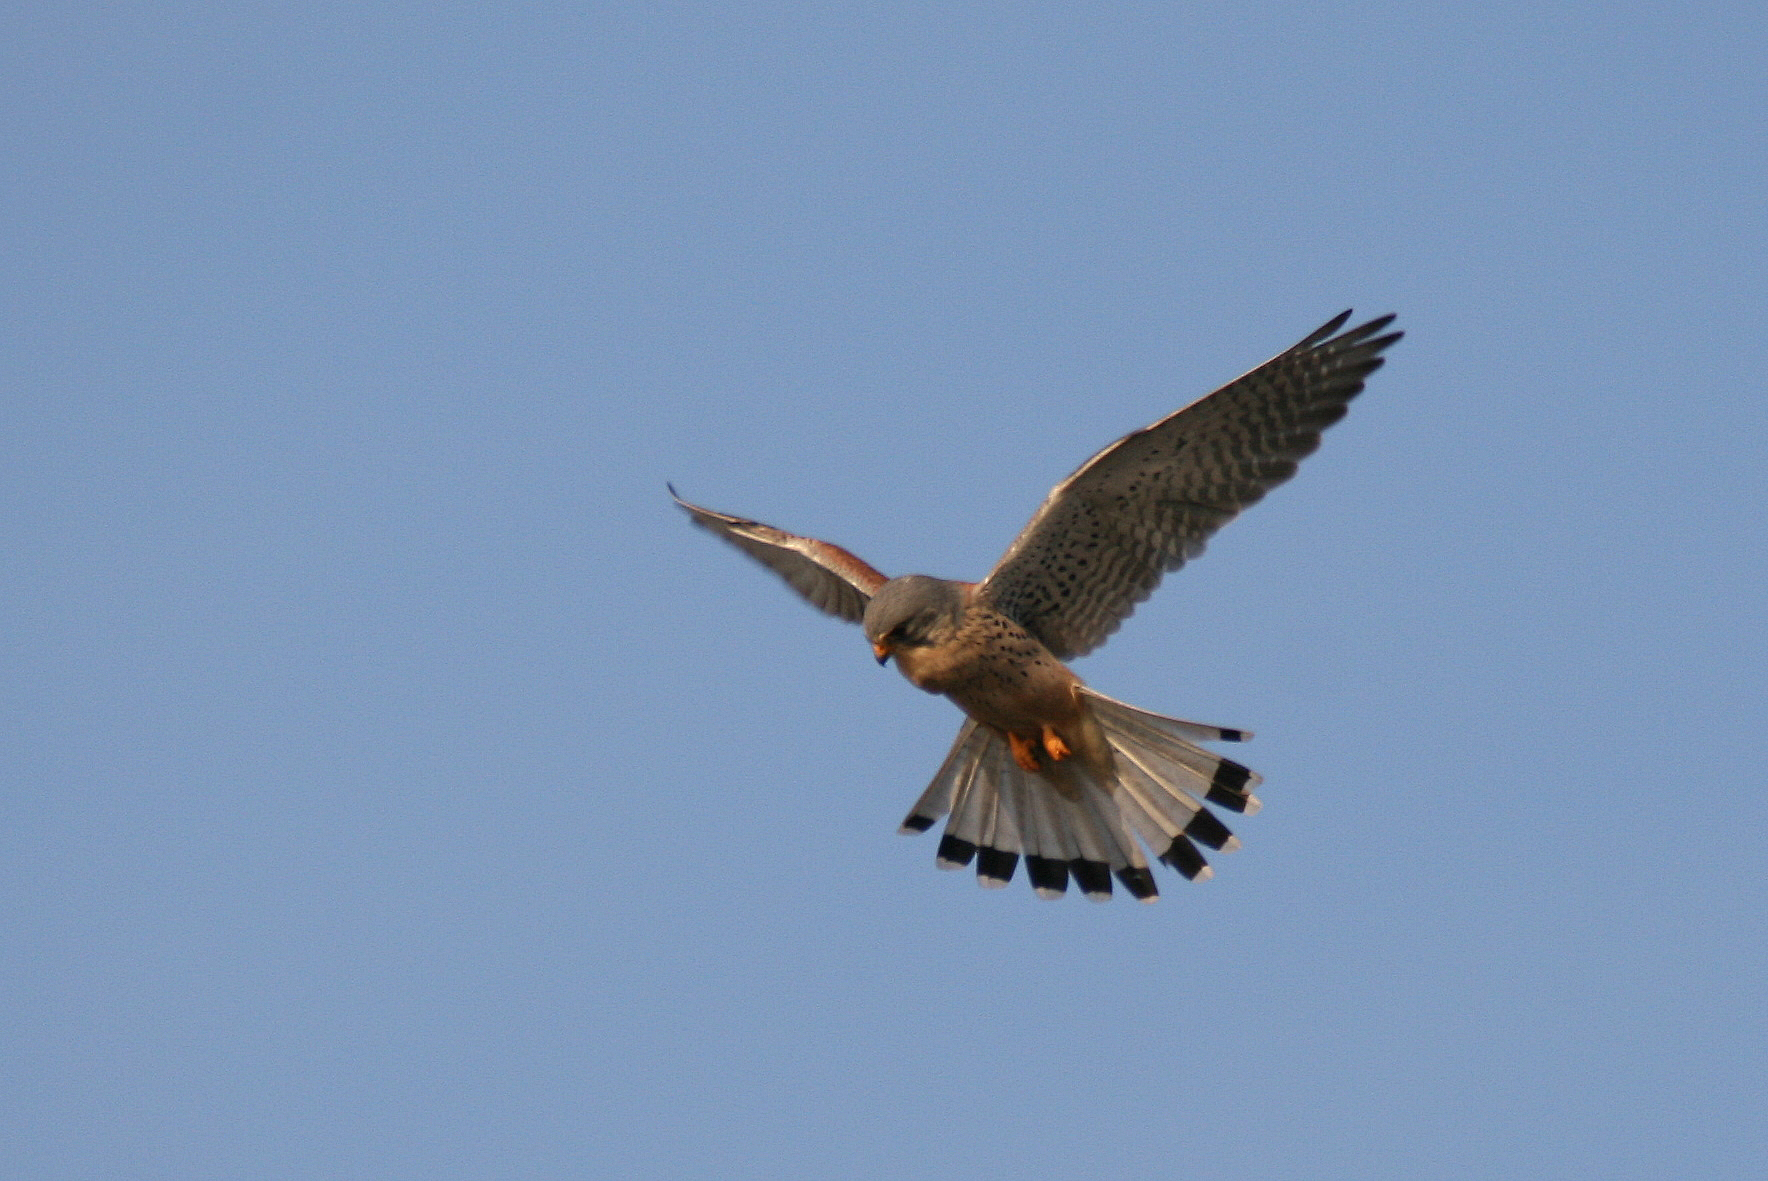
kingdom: Animalia
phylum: Chordata
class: Aves
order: Falconiformes
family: Falconidae
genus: Falco
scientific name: Falco tinnunculus
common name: Common kestrel
